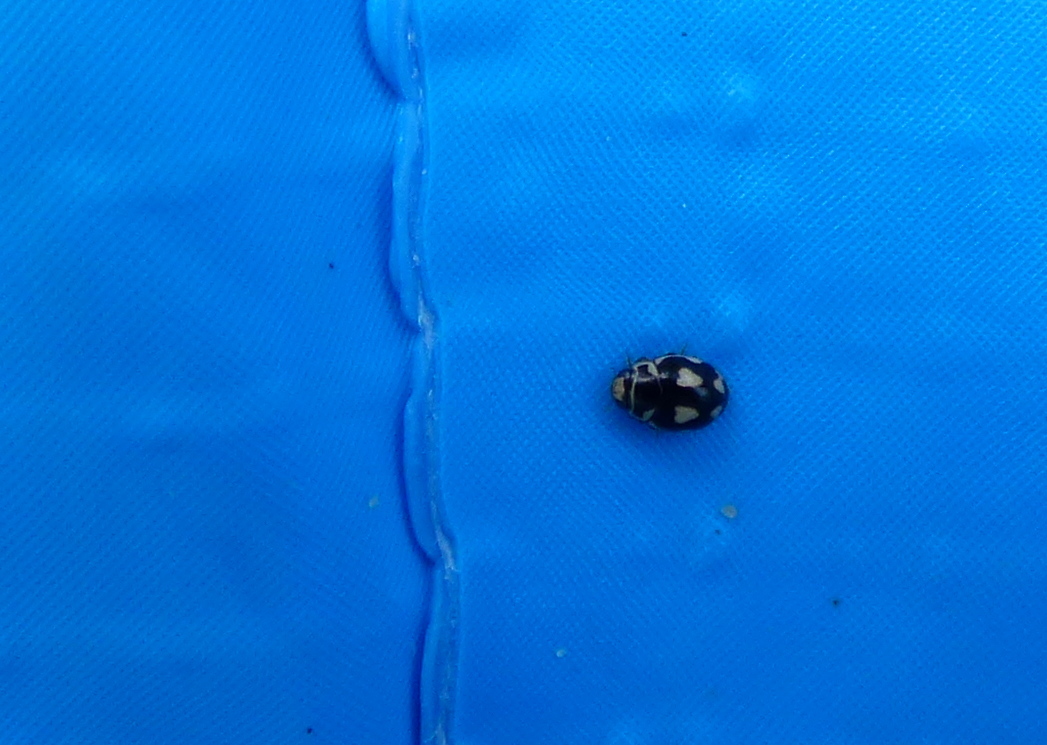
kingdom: Animalia
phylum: Arthropoda
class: Insecta
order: Coleoptera
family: Coccinellidae
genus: Hyperaspis
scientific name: Hyperaspis festiva
